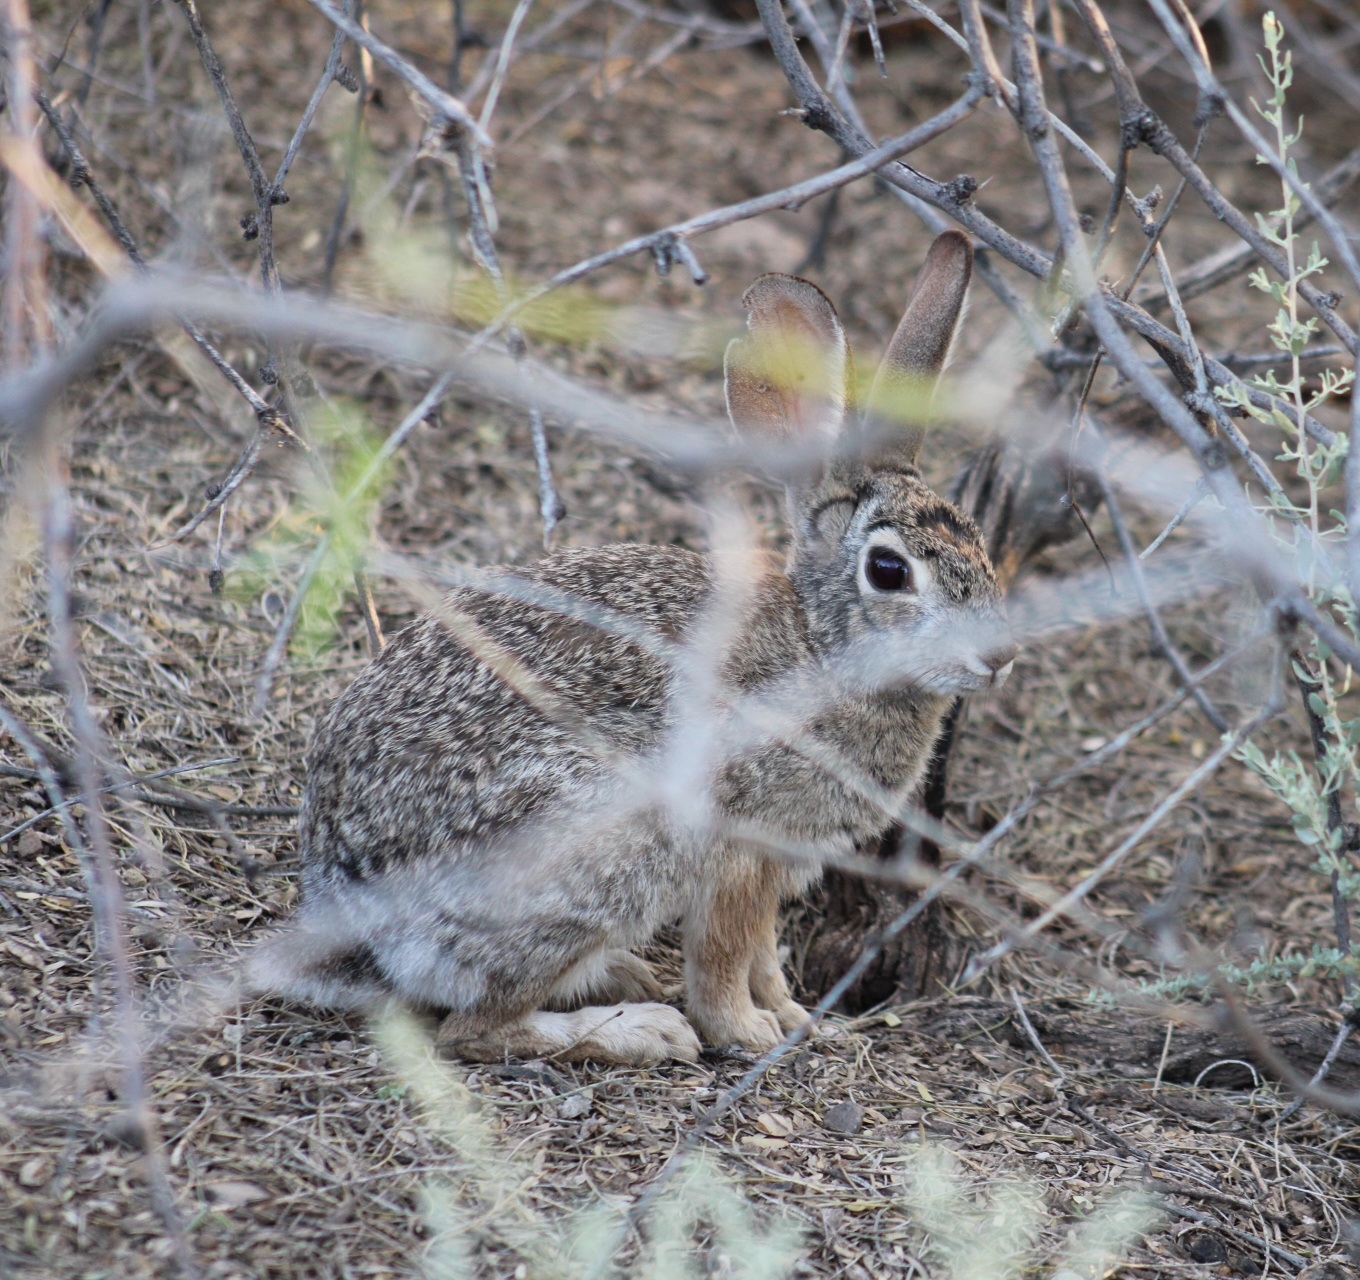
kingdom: Animalia
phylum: Chordata
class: Mammalia
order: Lagomorpha
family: Leporidae
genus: Sylvilagus
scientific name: Sylvilagus audubonii
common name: Desert cottontail
